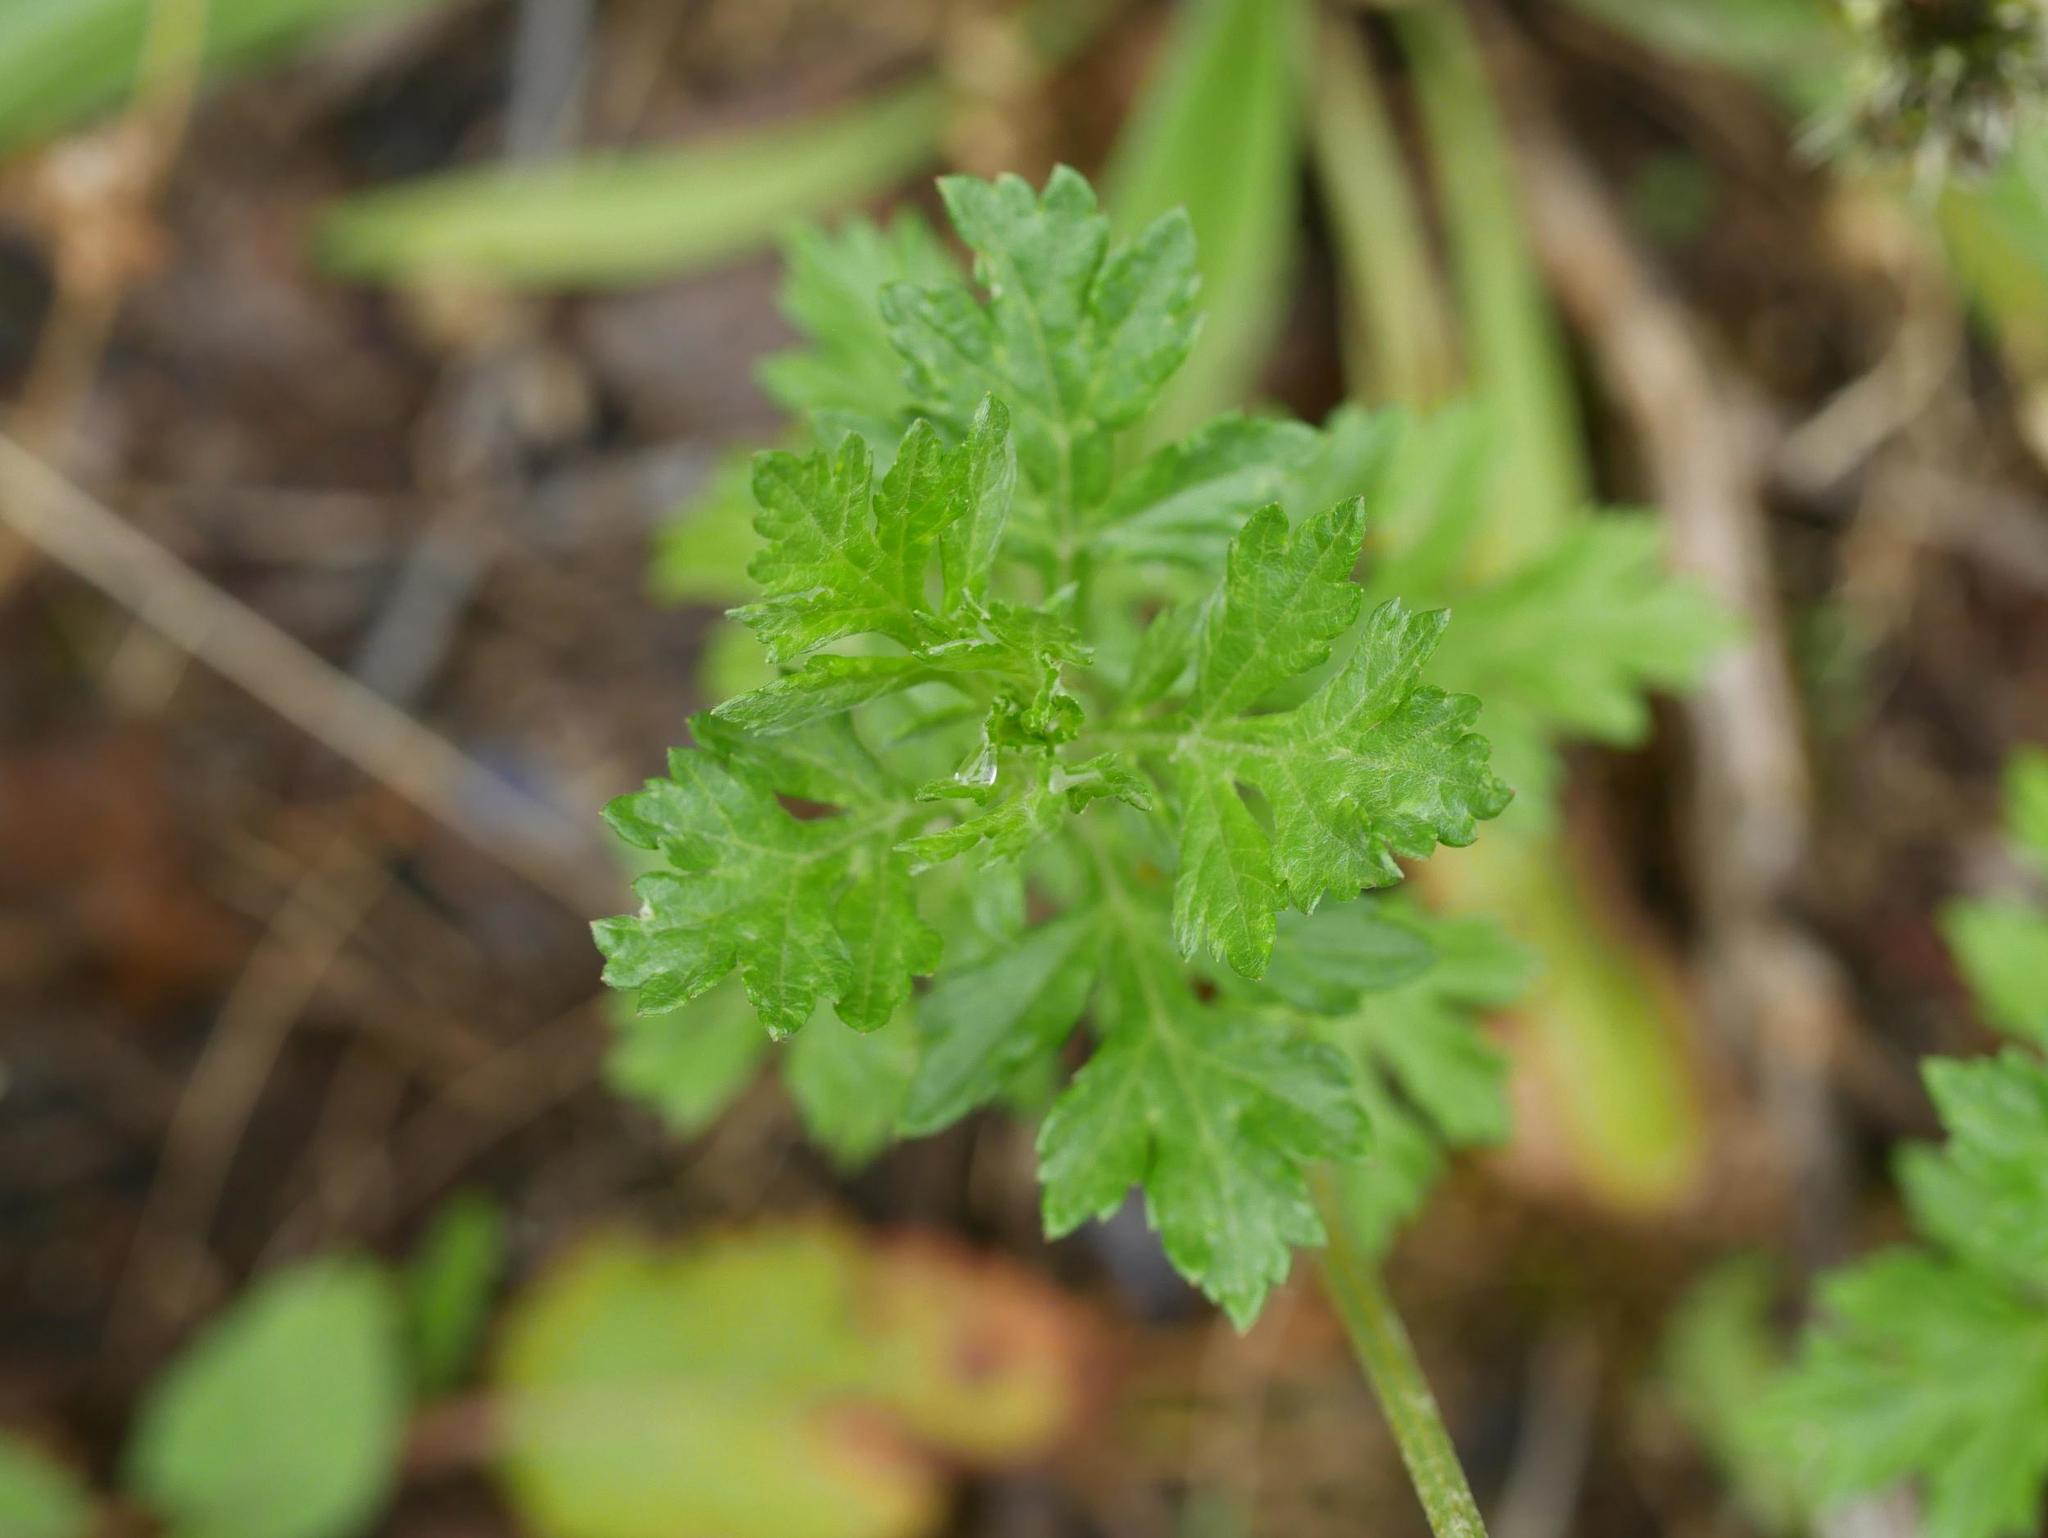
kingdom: Plantae
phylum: Tracheophyta
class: Magnoliopsida
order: Asterales
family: Asteraceae
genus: Artemisia
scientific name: Artemisia vulgaris
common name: Mugwort
